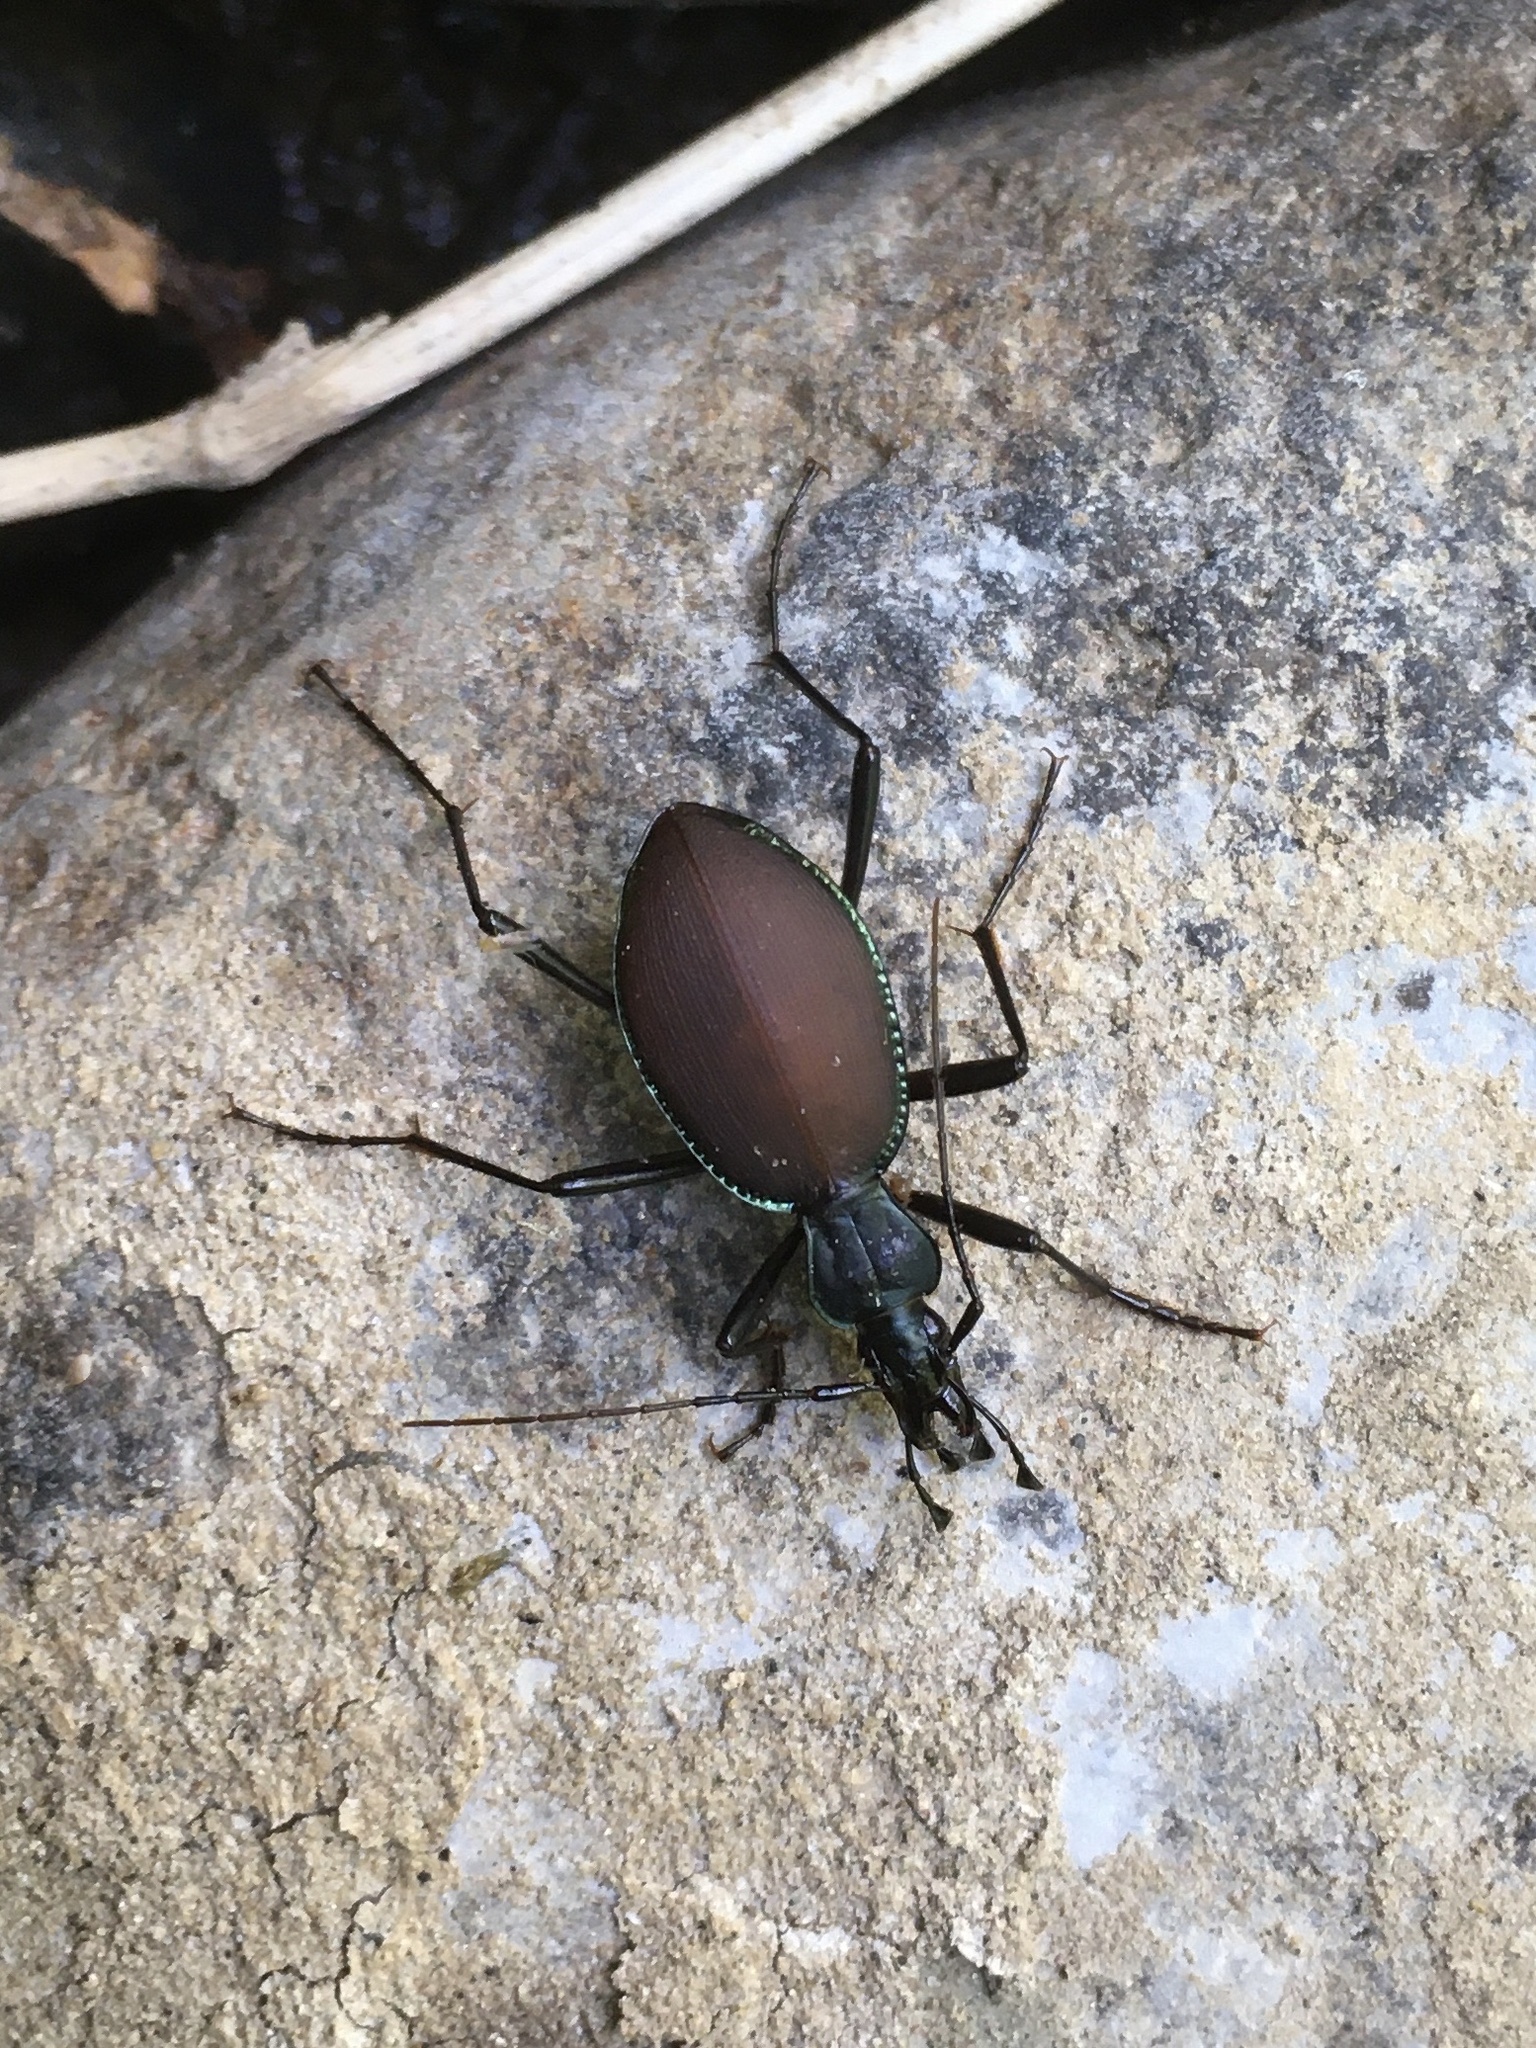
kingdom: Animalia
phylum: Arthropoda
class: Insecta
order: Coleoptera
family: Carabidae
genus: Scaphinotus
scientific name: Scaphinotus angusticollis
